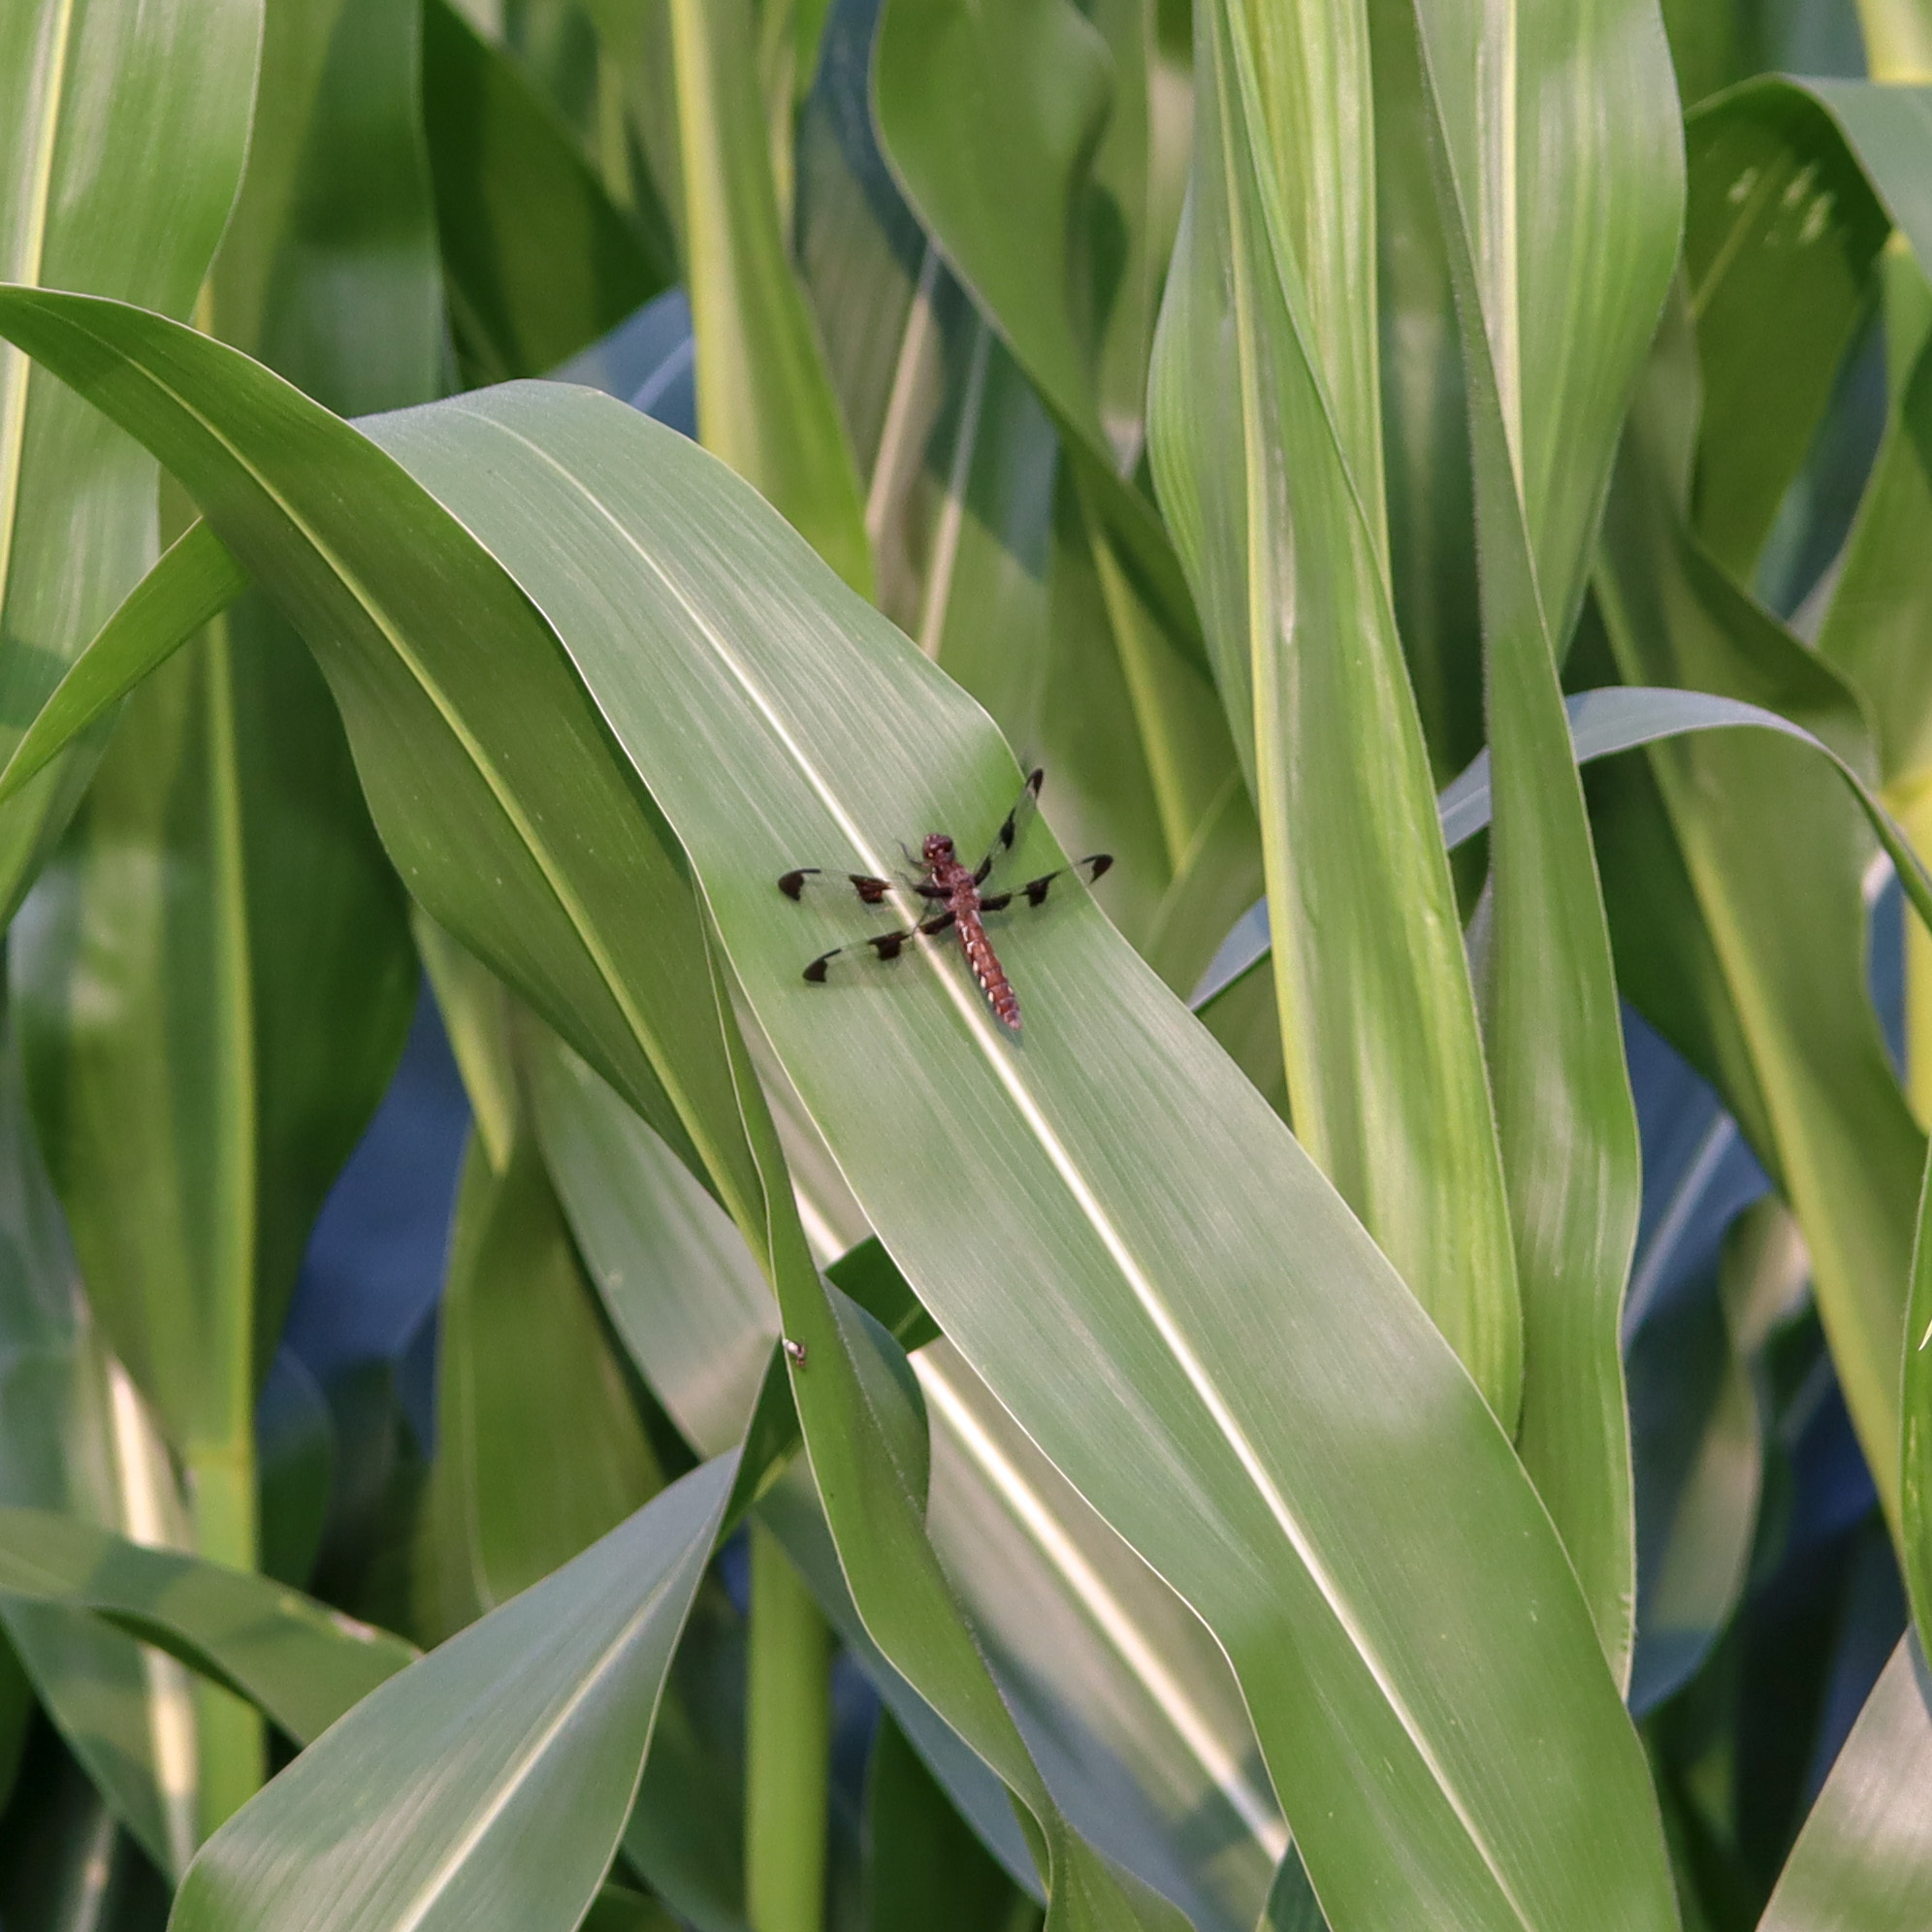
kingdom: Animalia
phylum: Arthropoda
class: Insecta
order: Odonata
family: Libellulidae
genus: Plathemis
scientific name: Plathemis lydia
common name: Common whitetail
